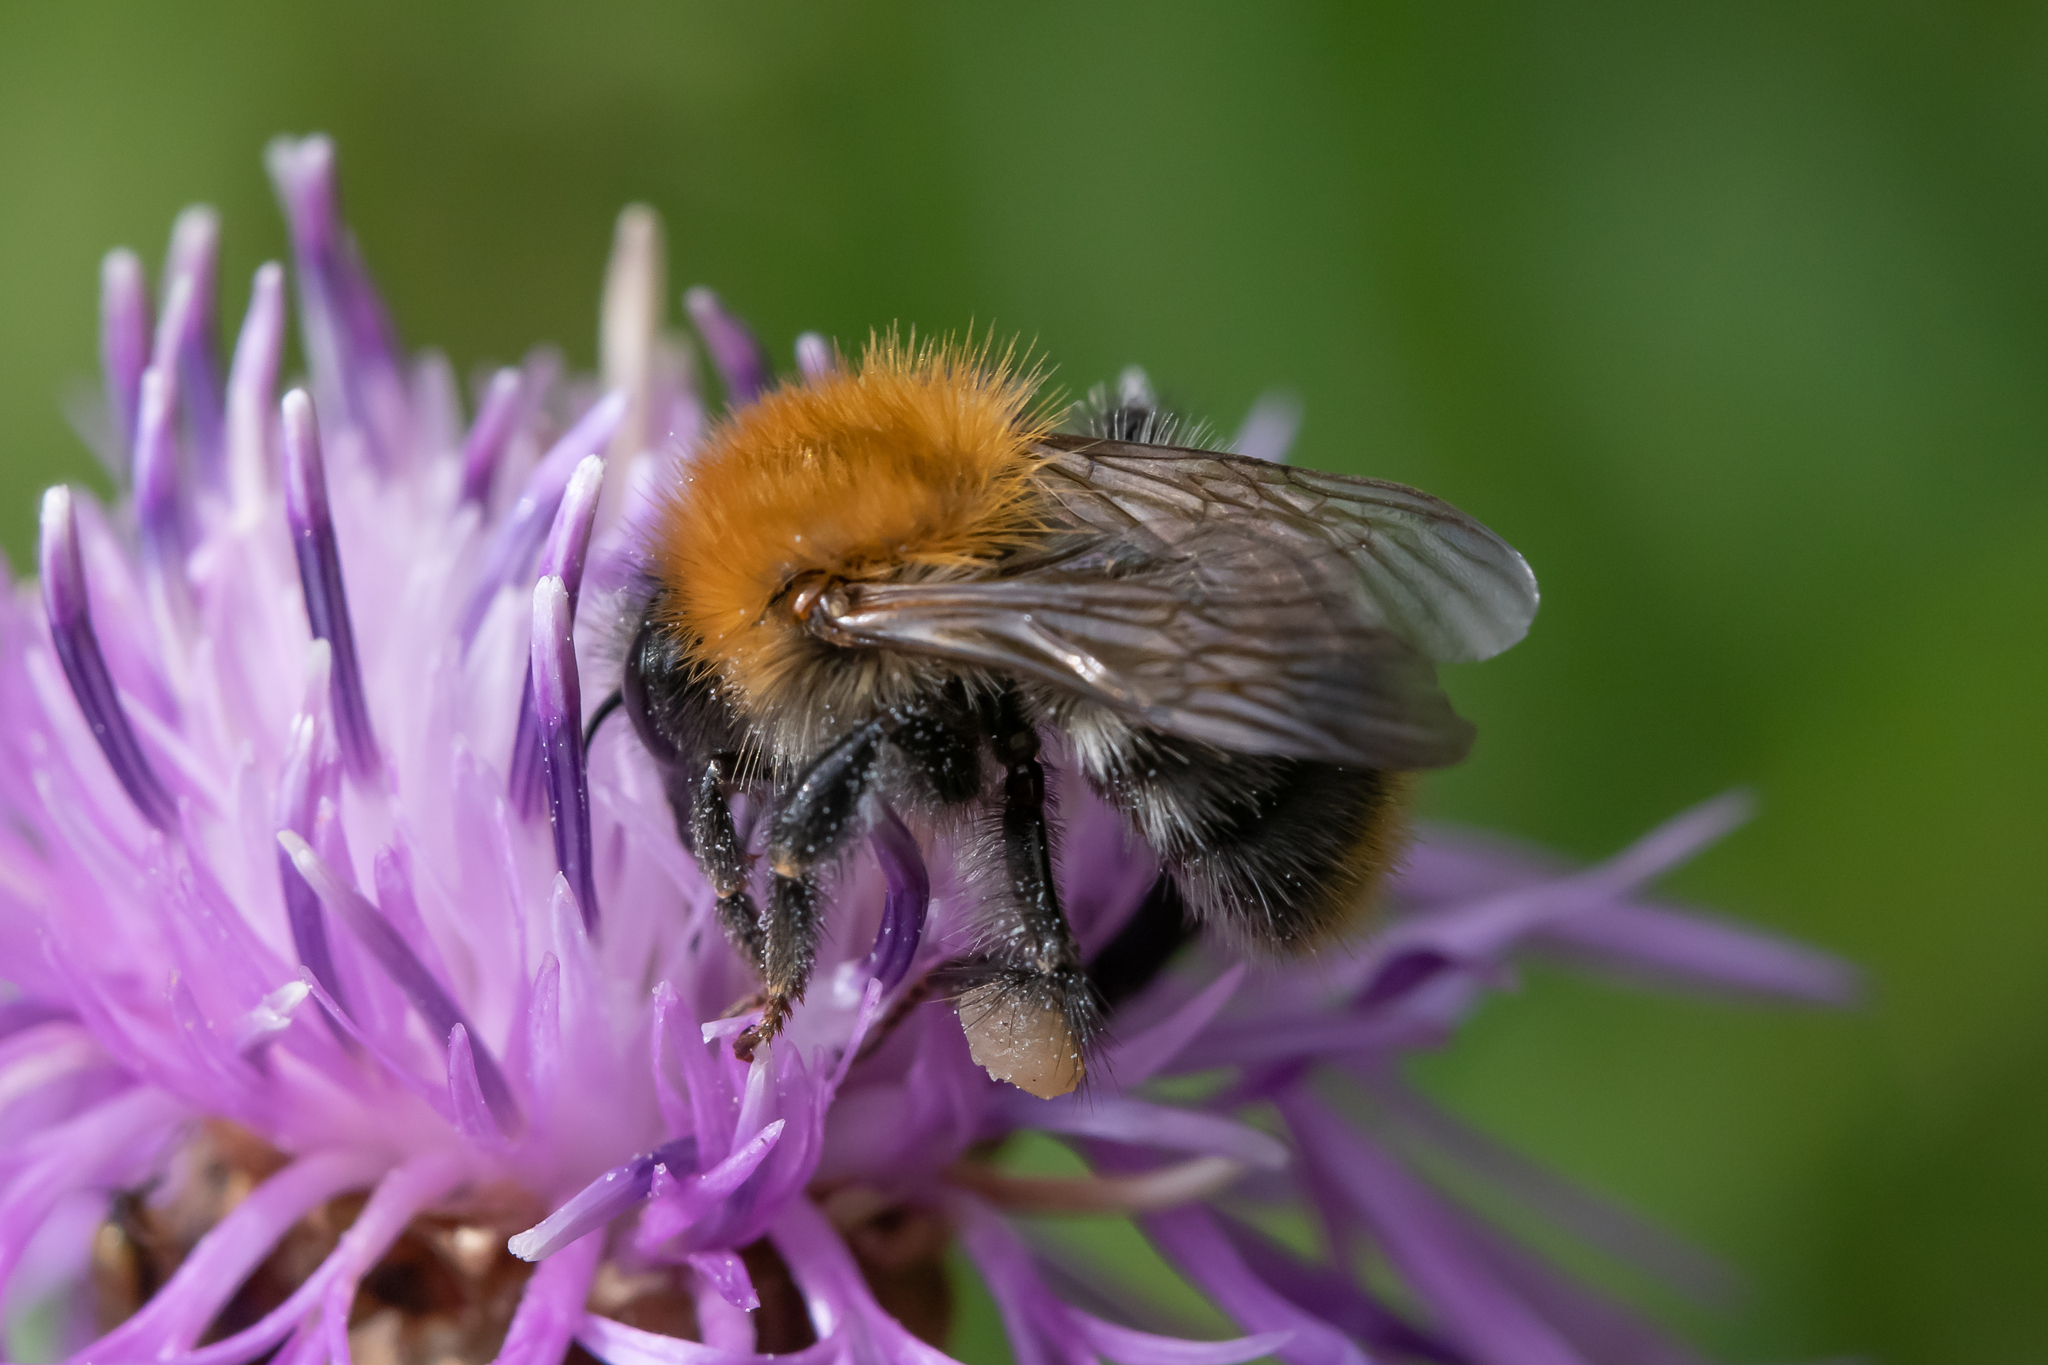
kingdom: Animalia
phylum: Arthropoda
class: Insecta
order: Hymenoptera
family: Apidae
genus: Bombus
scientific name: Bombus pascuorum
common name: Common carder bee
